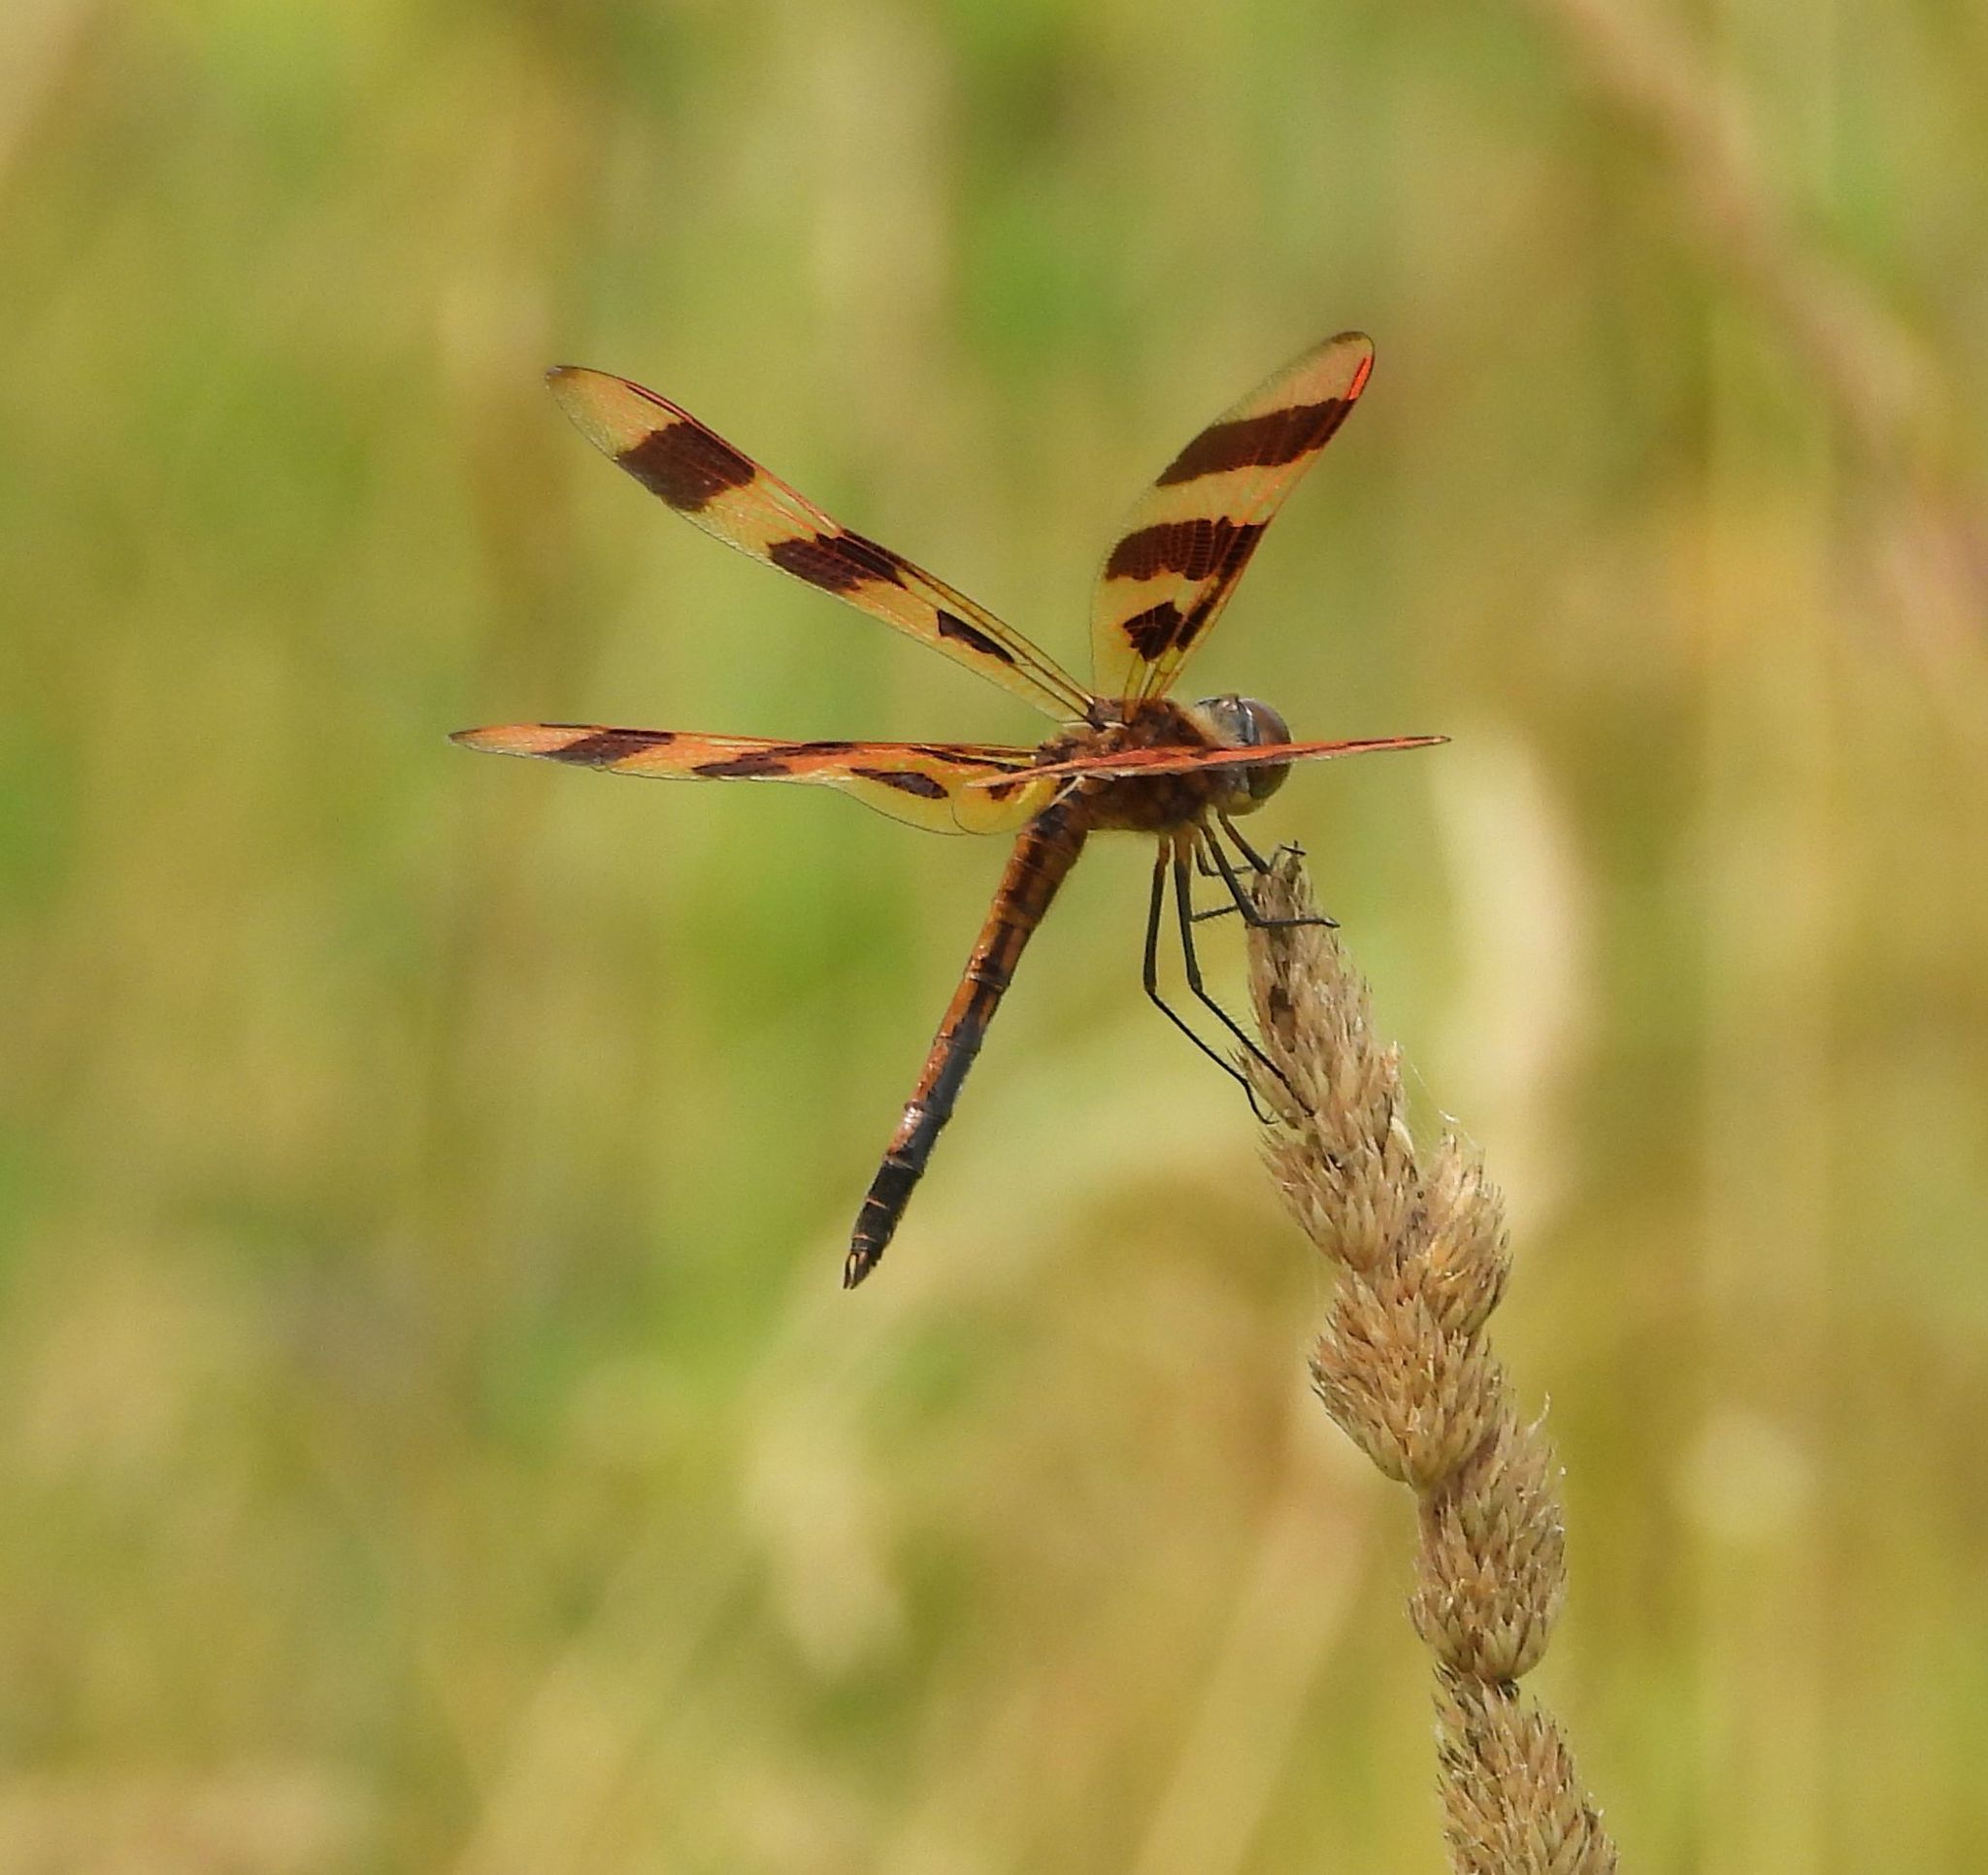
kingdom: Animalia
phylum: Arthropoda
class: Insecta
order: Odonata
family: Libellulidae
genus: Celithemis
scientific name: Celithemis eponina
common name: Halloween pennant
